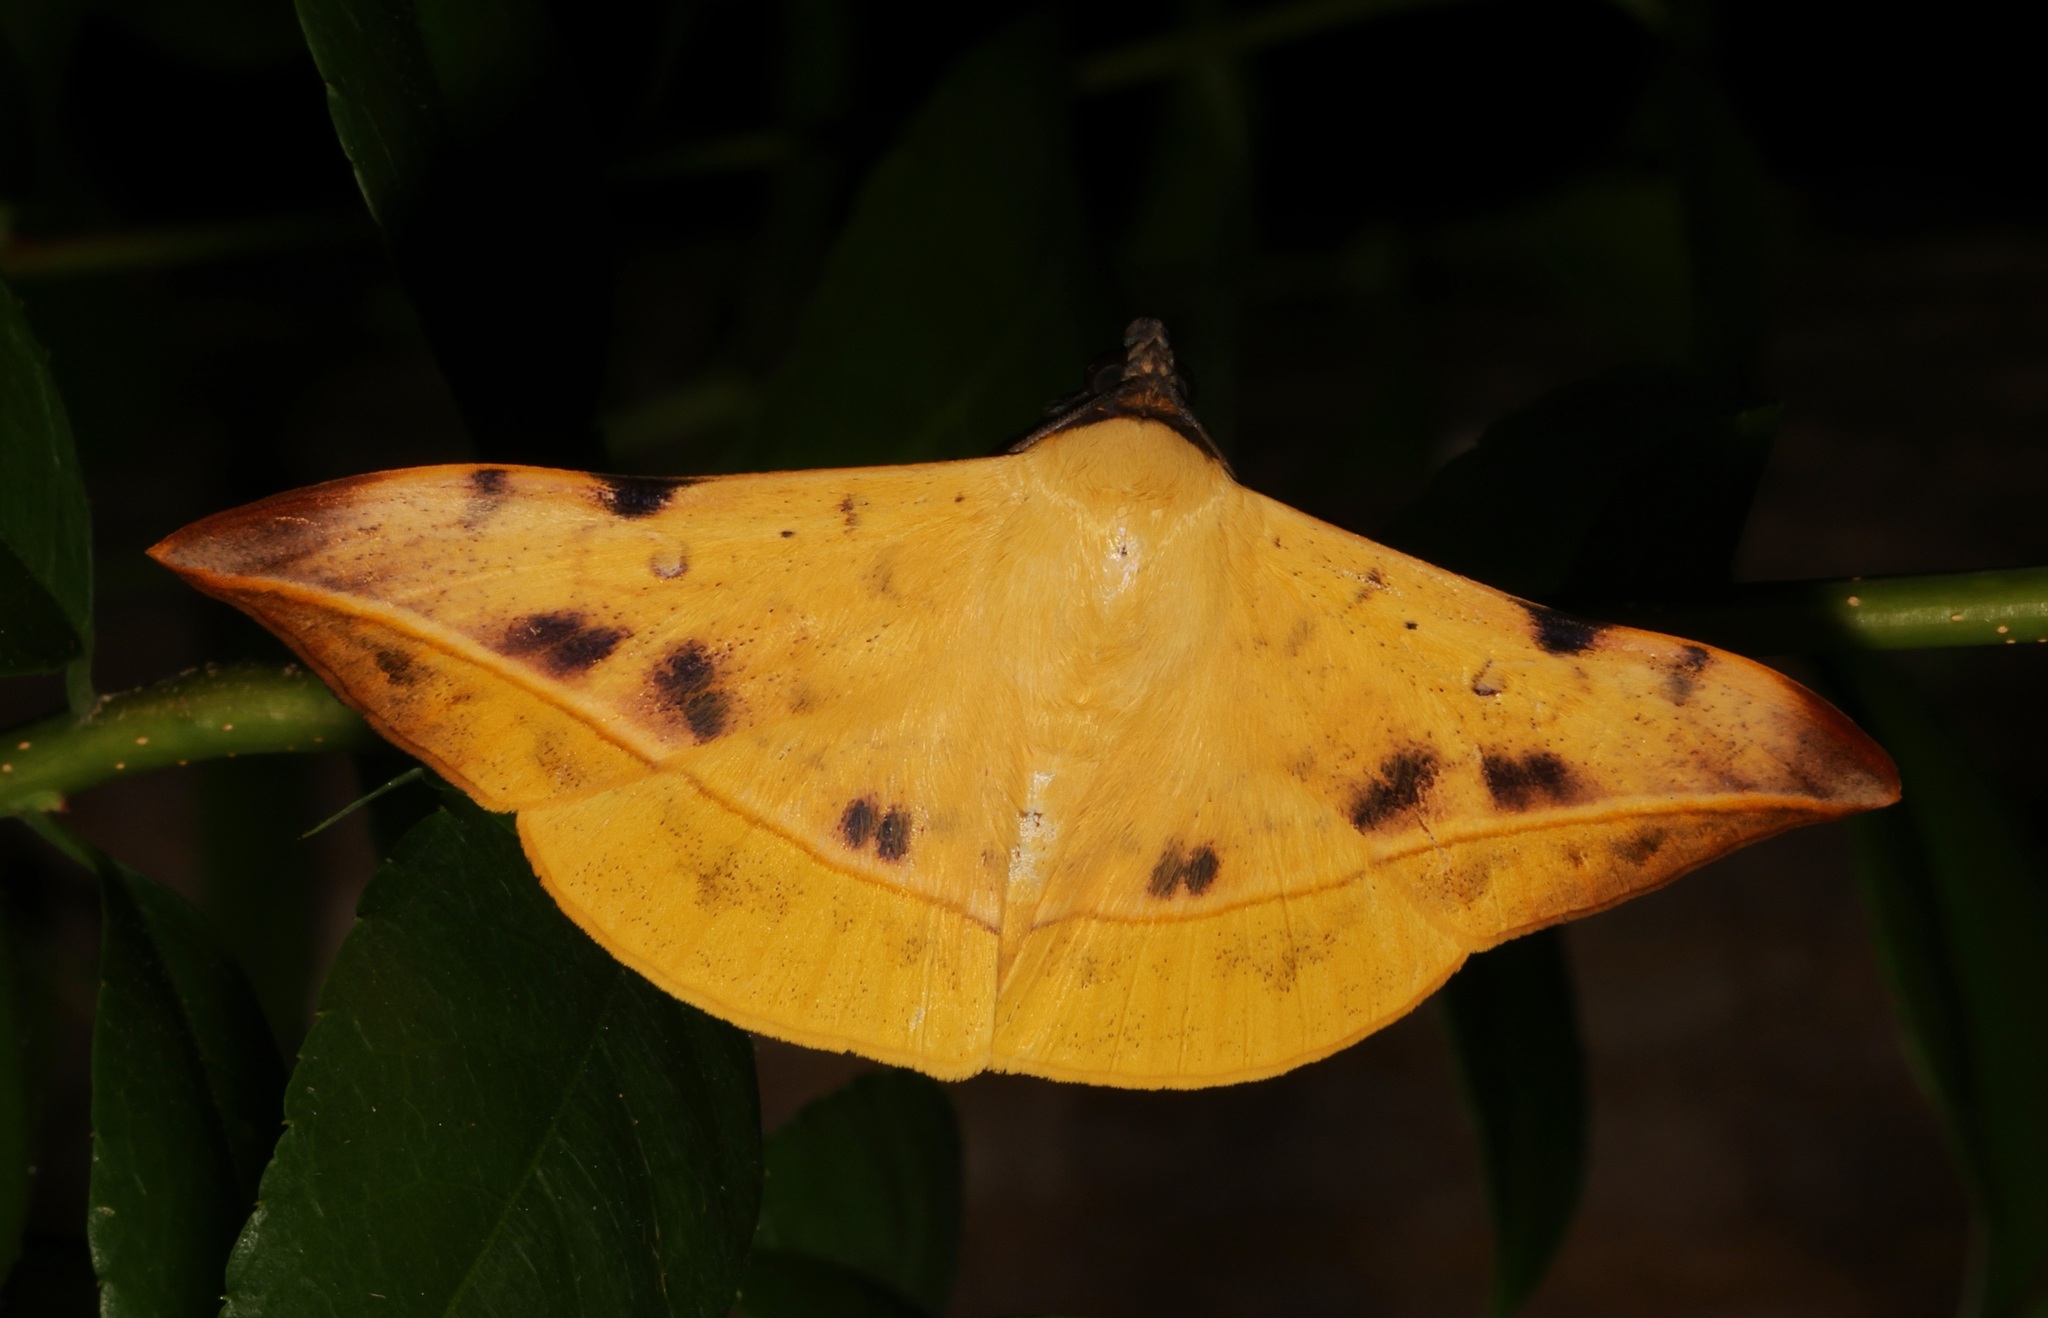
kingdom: Animalia
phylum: Arthropoda
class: Insecta
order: Lepidoptera
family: Erebidae
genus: Hamodes
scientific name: Hamodes propitia
